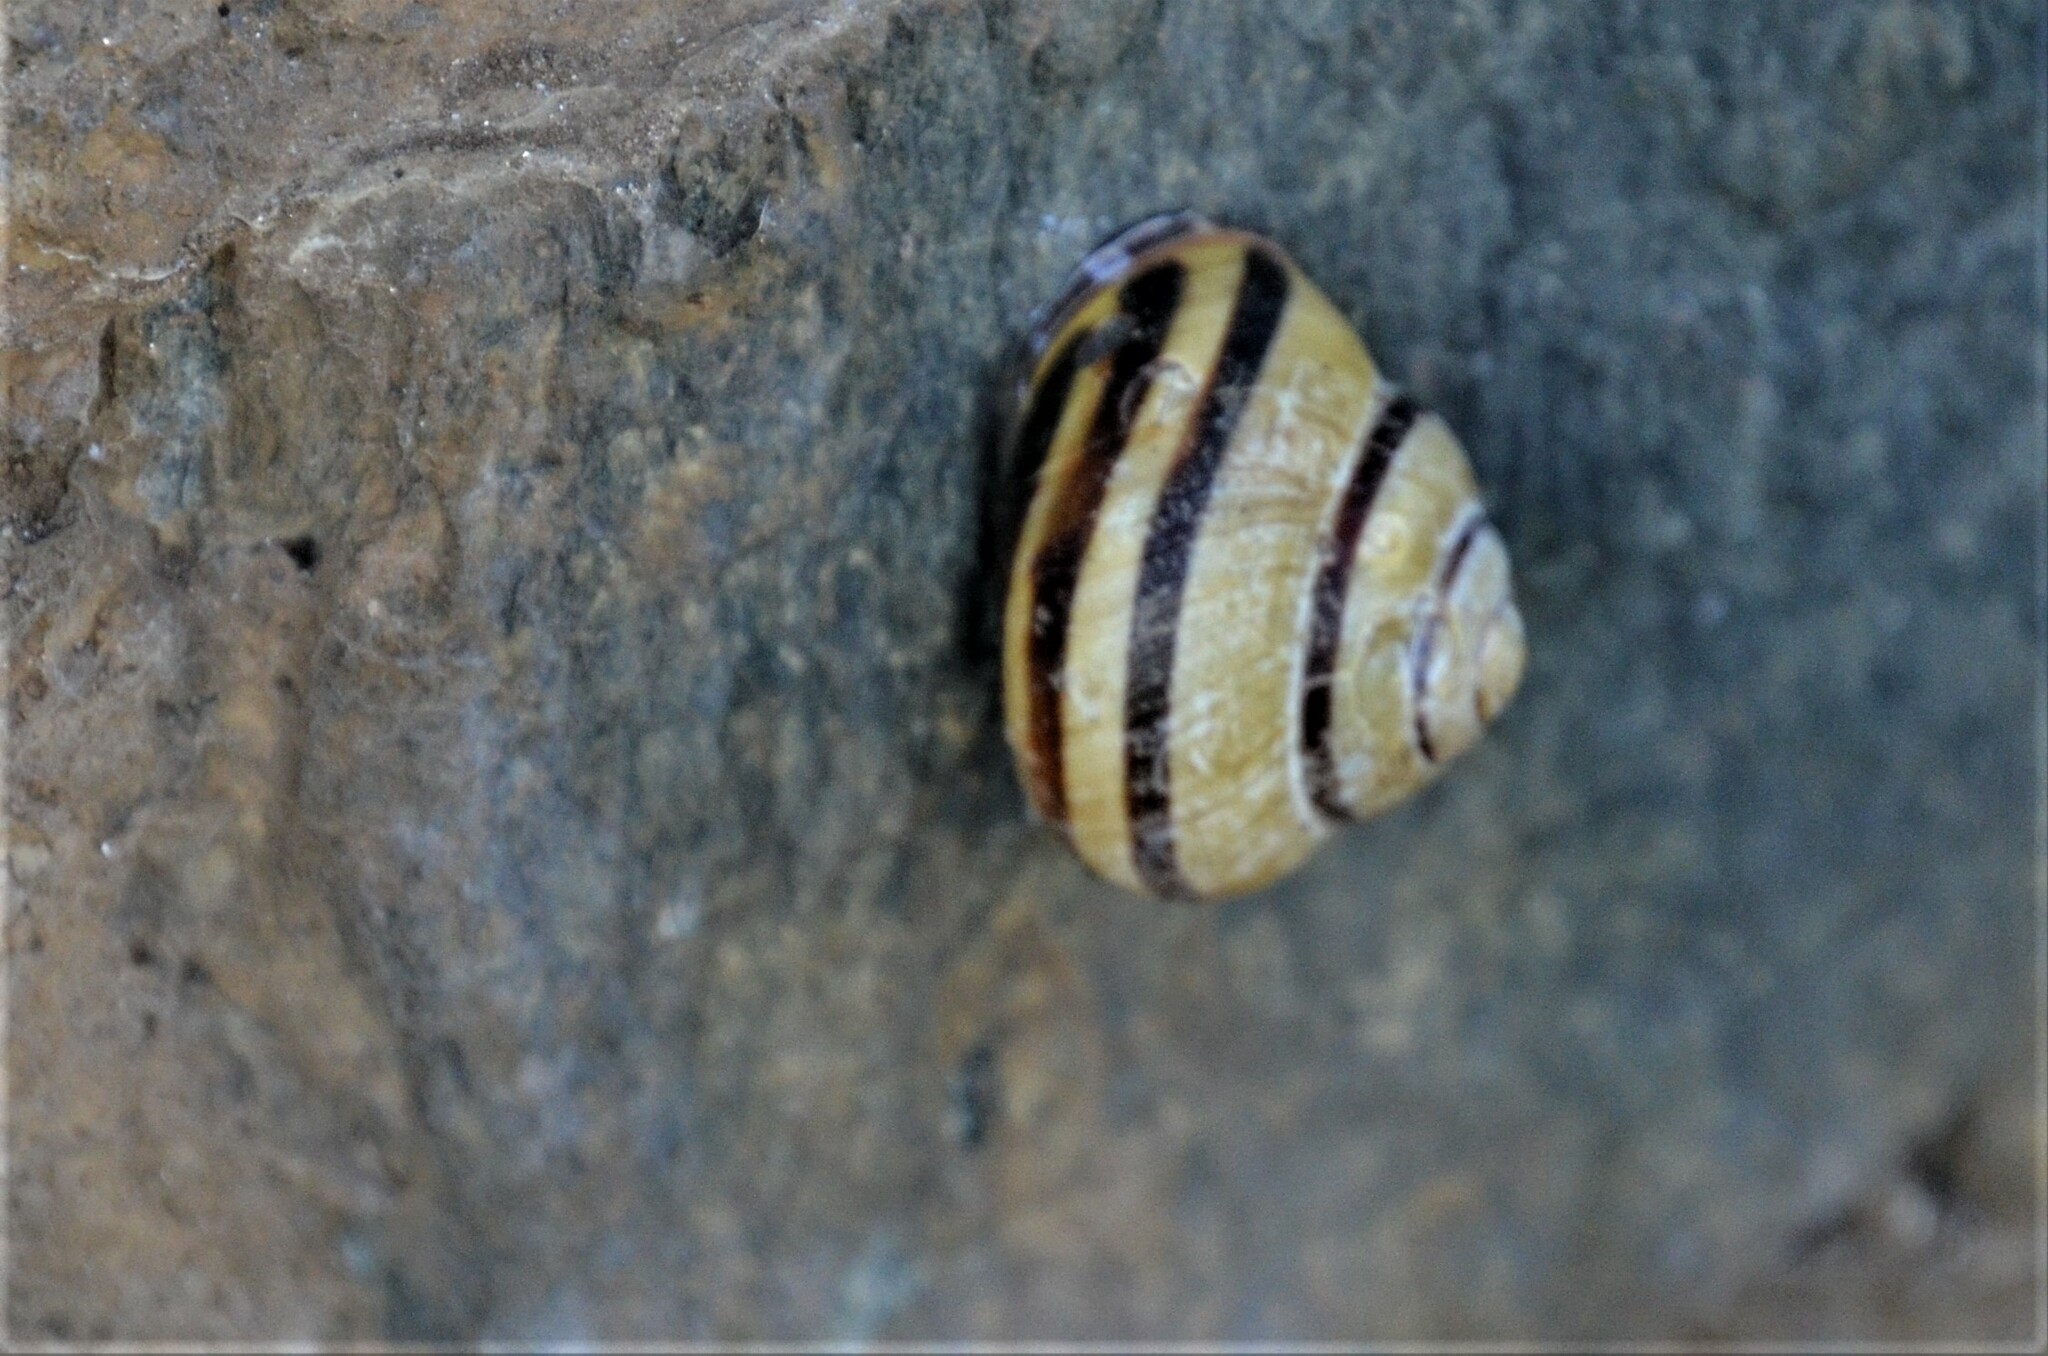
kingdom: Animalia
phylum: Mollusca
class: Gastropoda
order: Stylommatophora
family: Helicidae
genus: Cepaea
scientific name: Cepaea nemoralis
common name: Grovesnail
